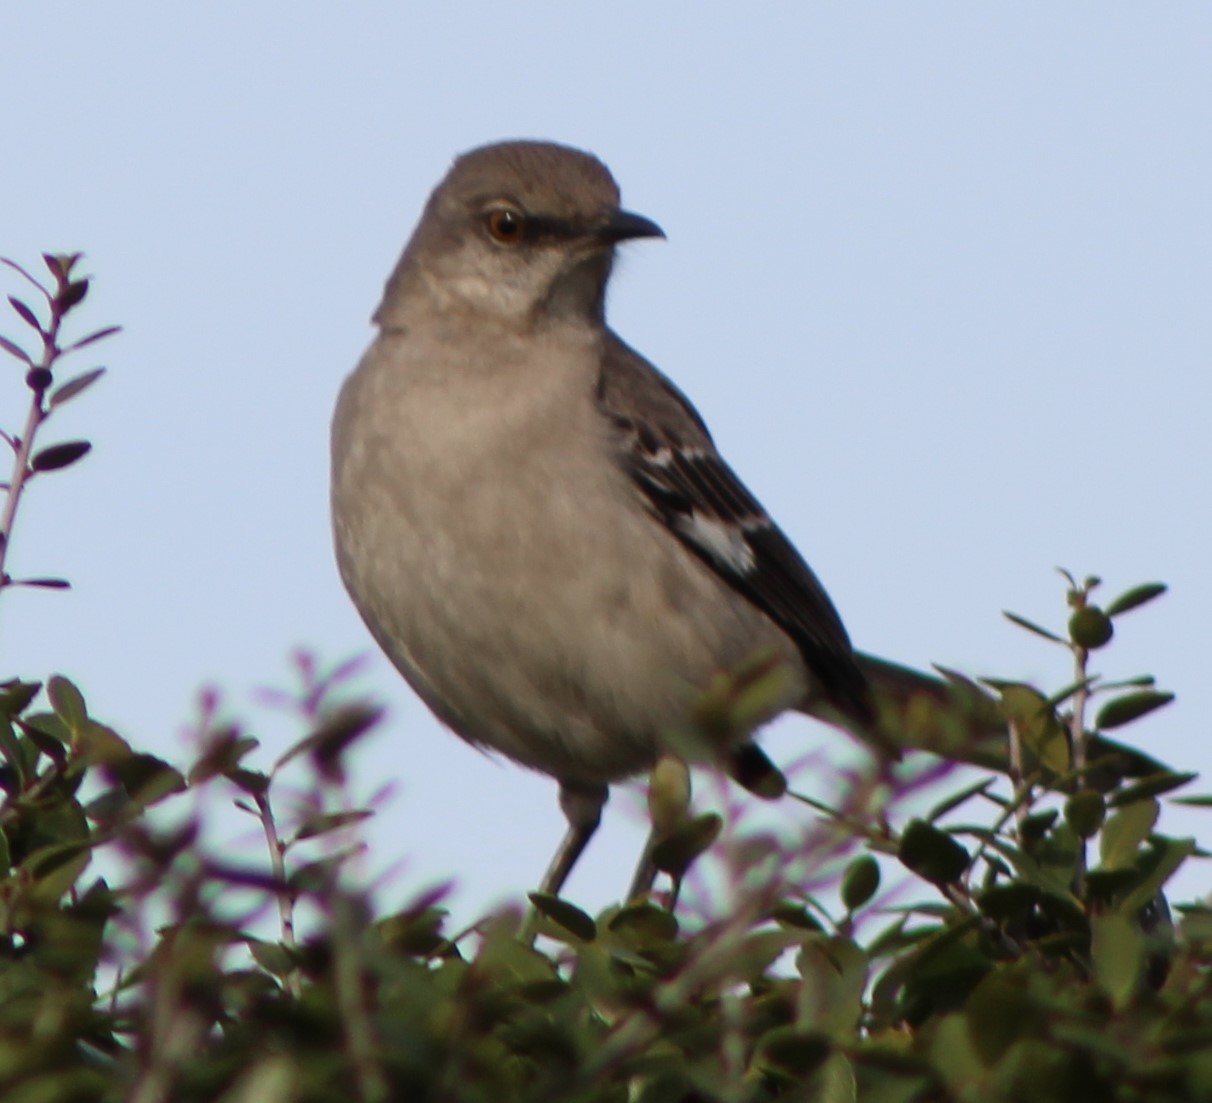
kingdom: Animalia
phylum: Chordata
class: Aves
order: Passeriformes
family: Mimidae
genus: Mimus
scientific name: Mimus polyglottos
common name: Northern mockingbird
